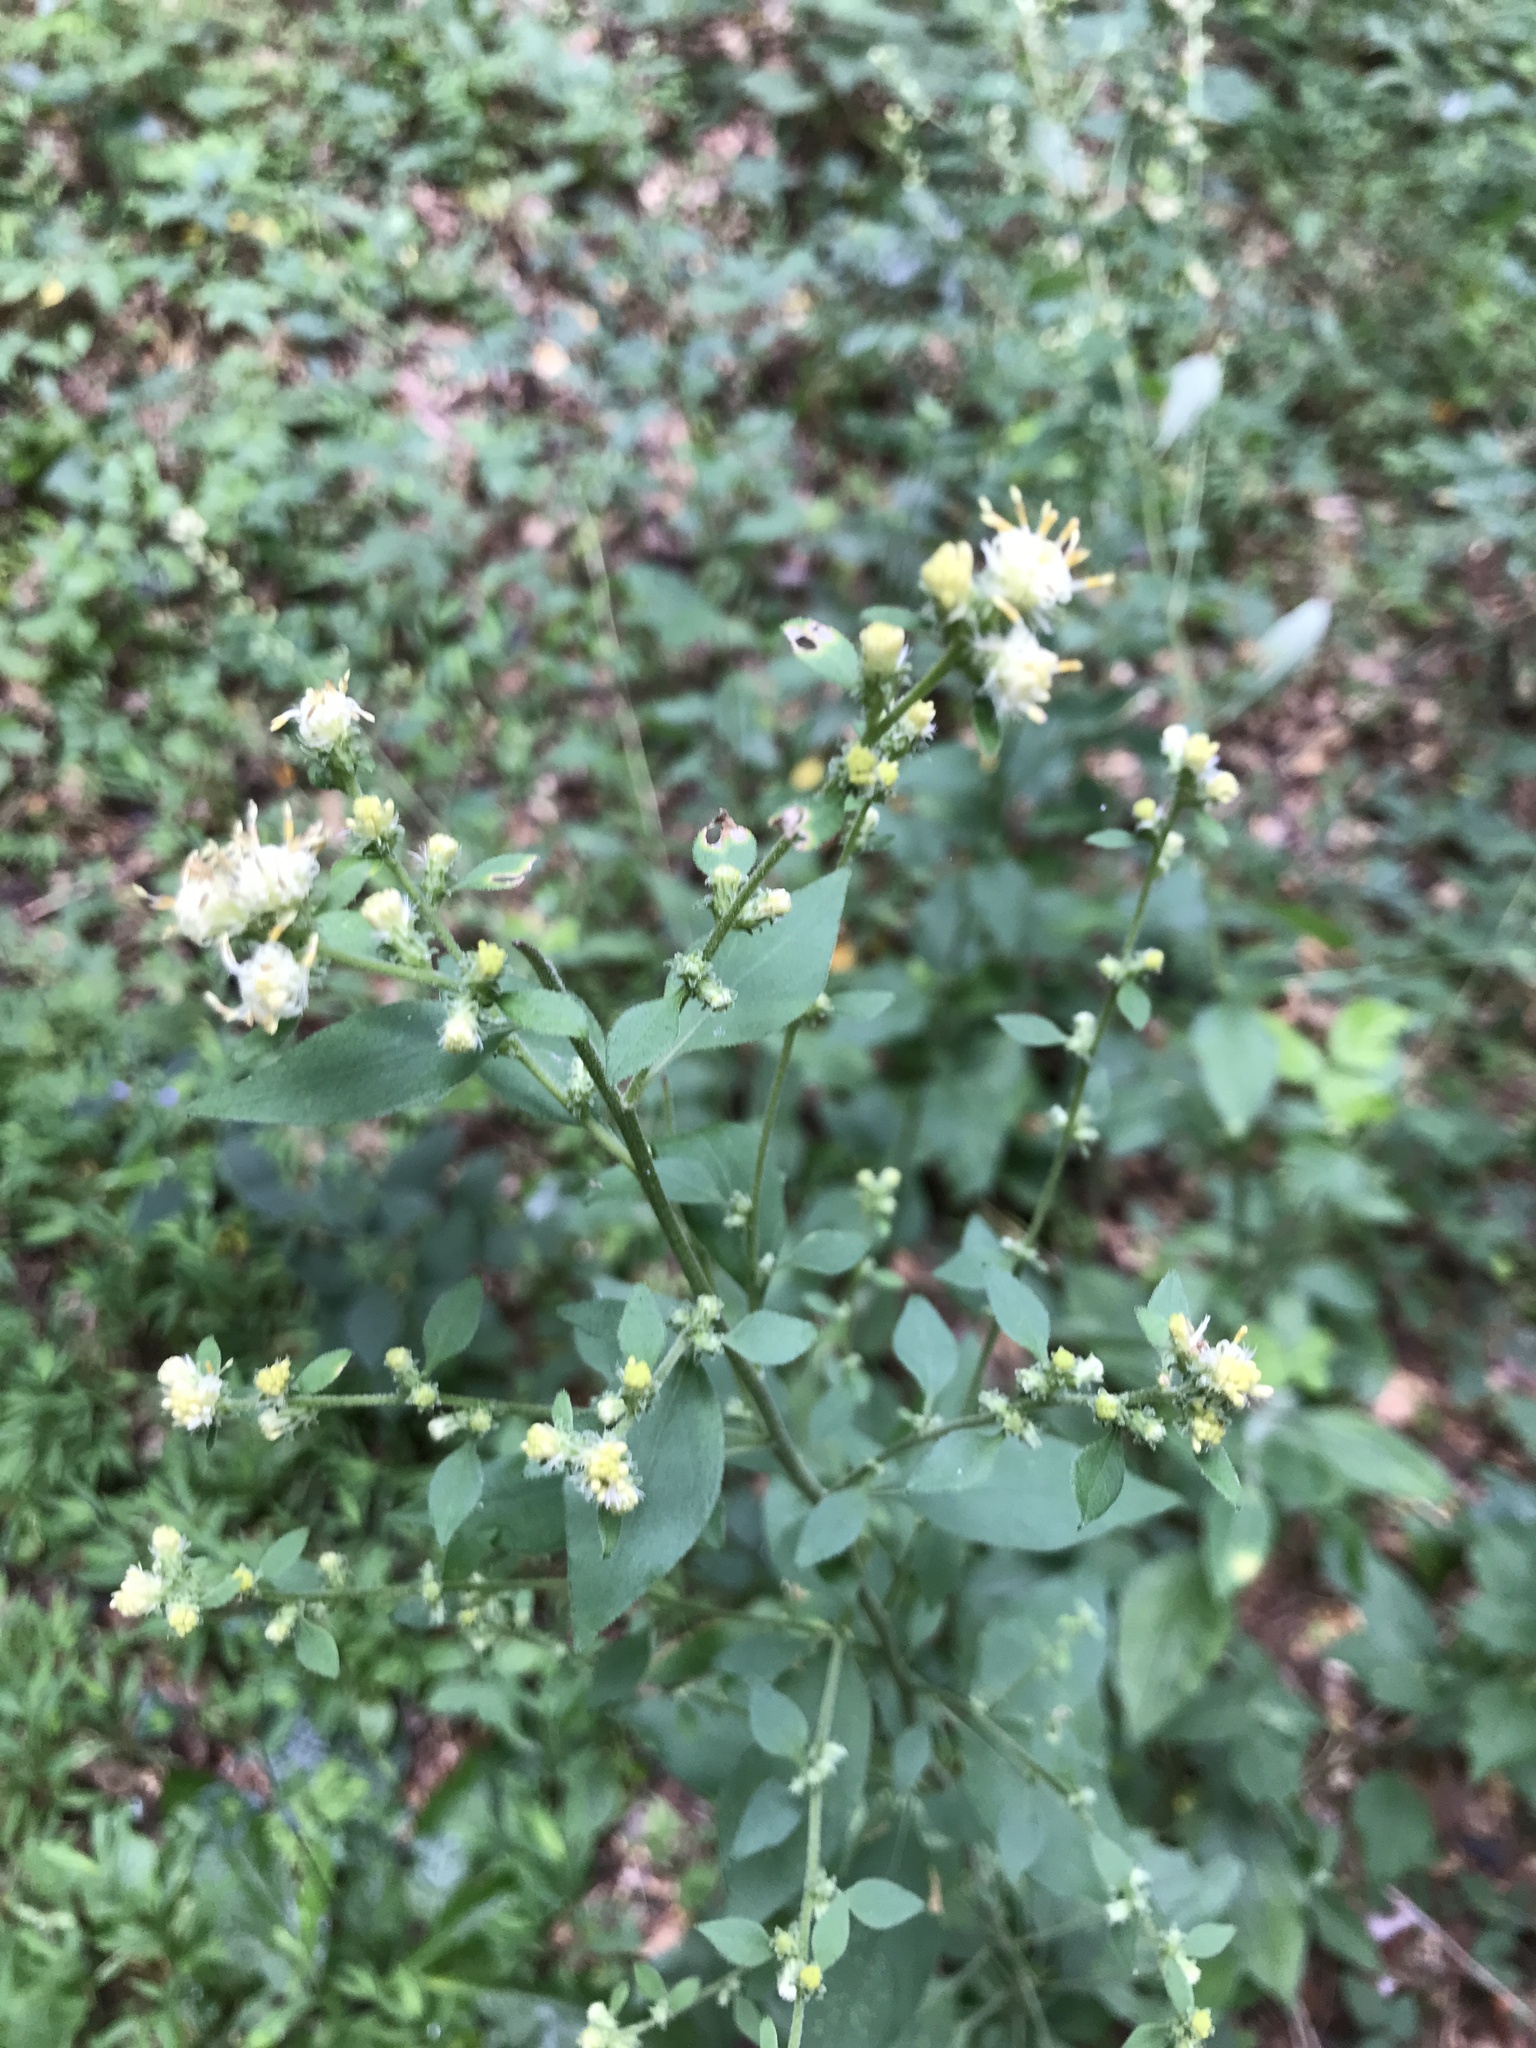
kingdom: Plantae
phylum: Tracheophyta
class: Magnoliopsida
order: Asterales
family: Asteraceae
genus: Solidago
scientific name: Solidago discoidea
